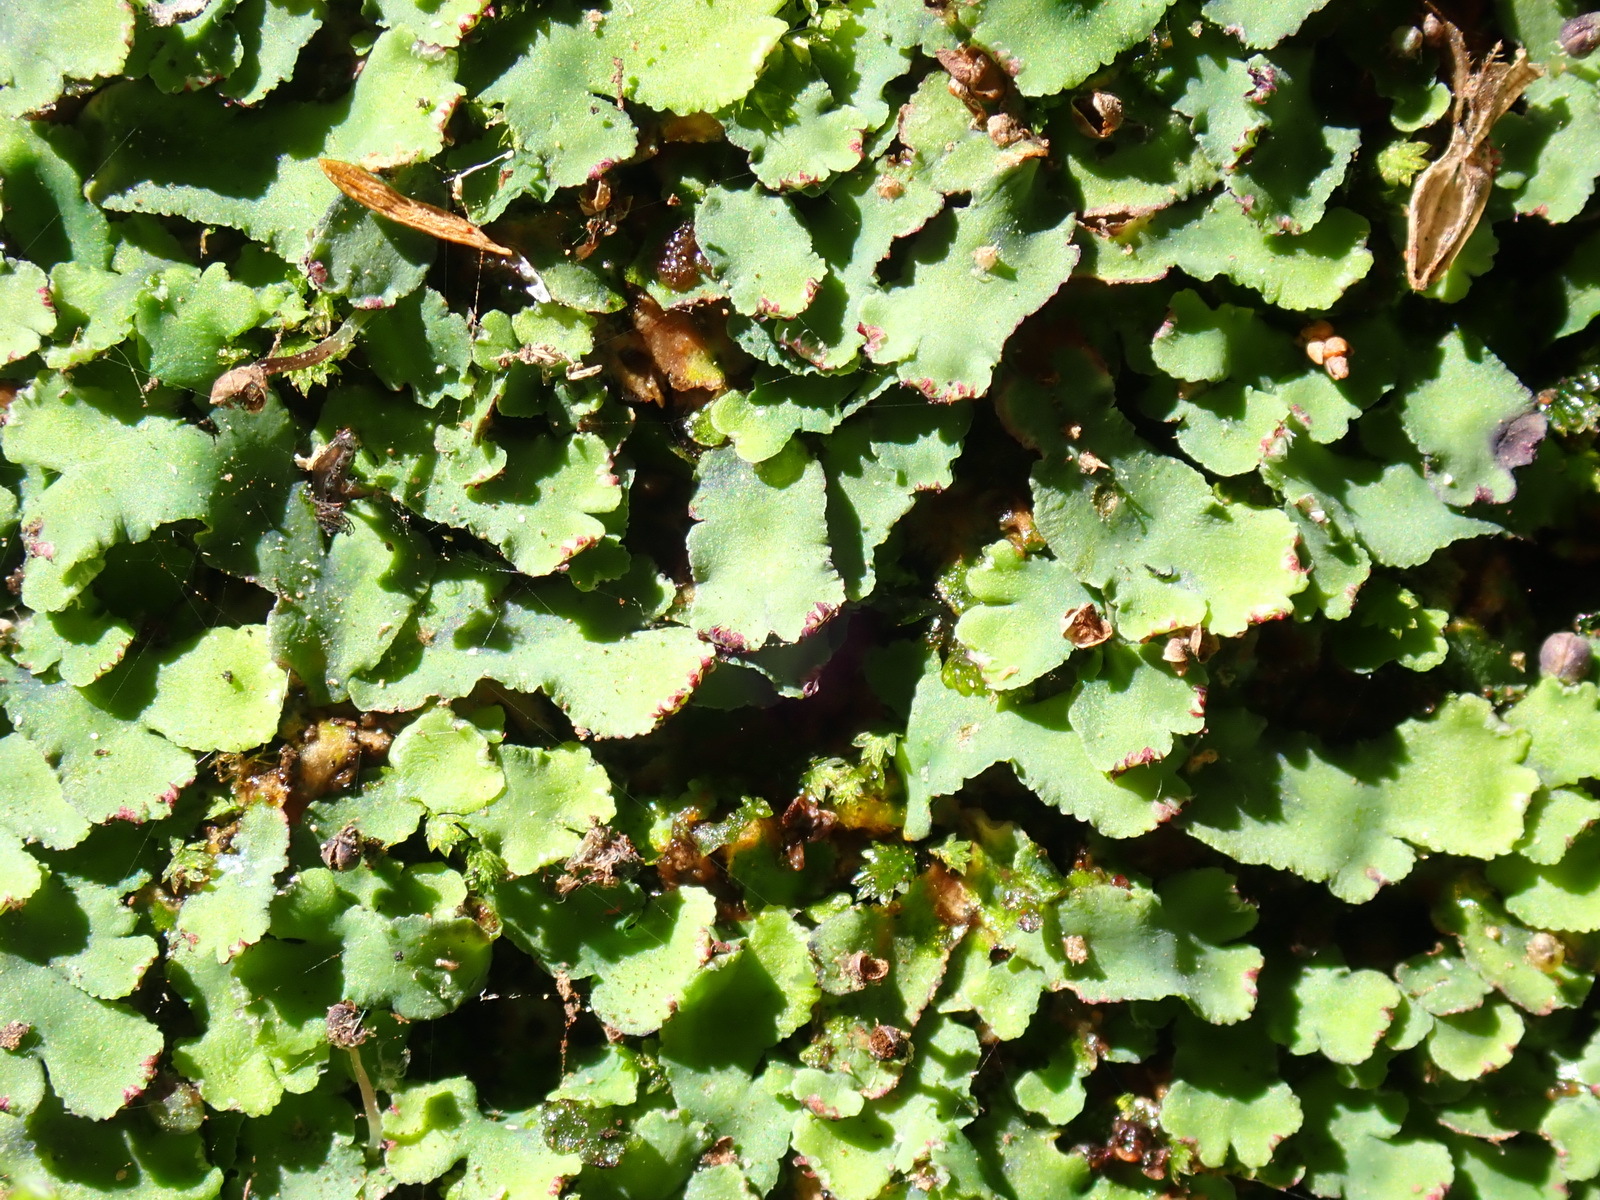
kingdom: Plantae
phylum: Marchantiophyta
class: Marchantiopsida
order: Marchantiales
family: Aytoniaceae
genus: Plagiochasma
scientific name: Plagiochasma rupestre
